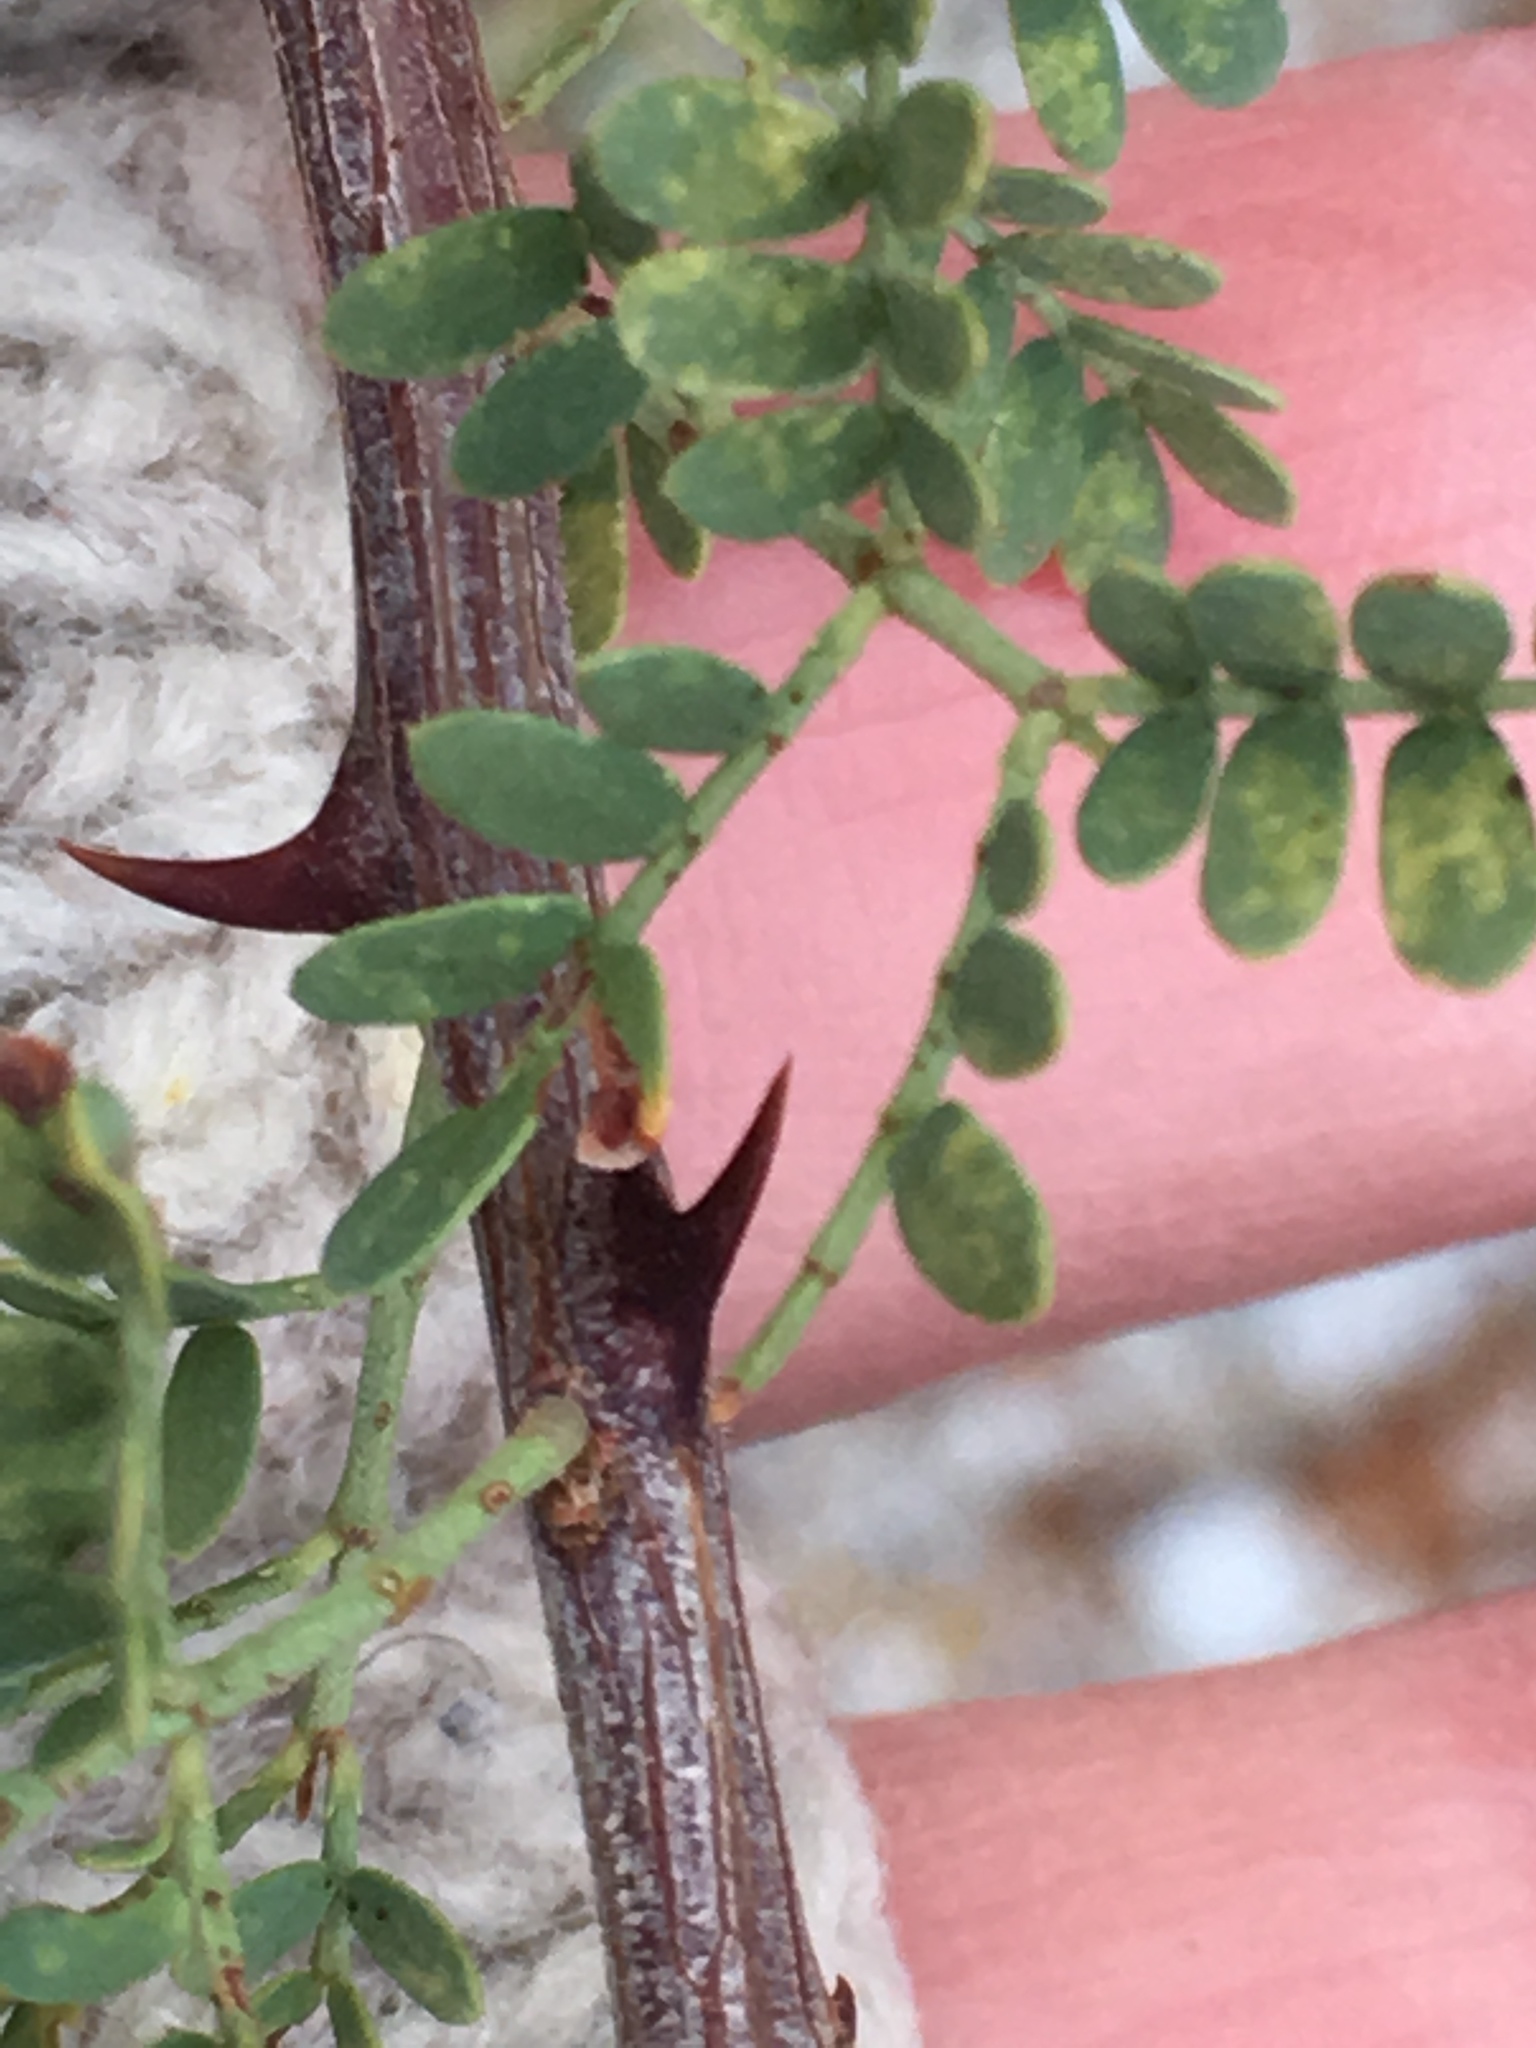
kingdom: Plantae
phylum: Tracheophyta
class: Magnoliopsida
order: Fabales
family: Fabaceae
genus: Senegalia
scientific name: Senegalia greggii
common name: Texas-mimosa
